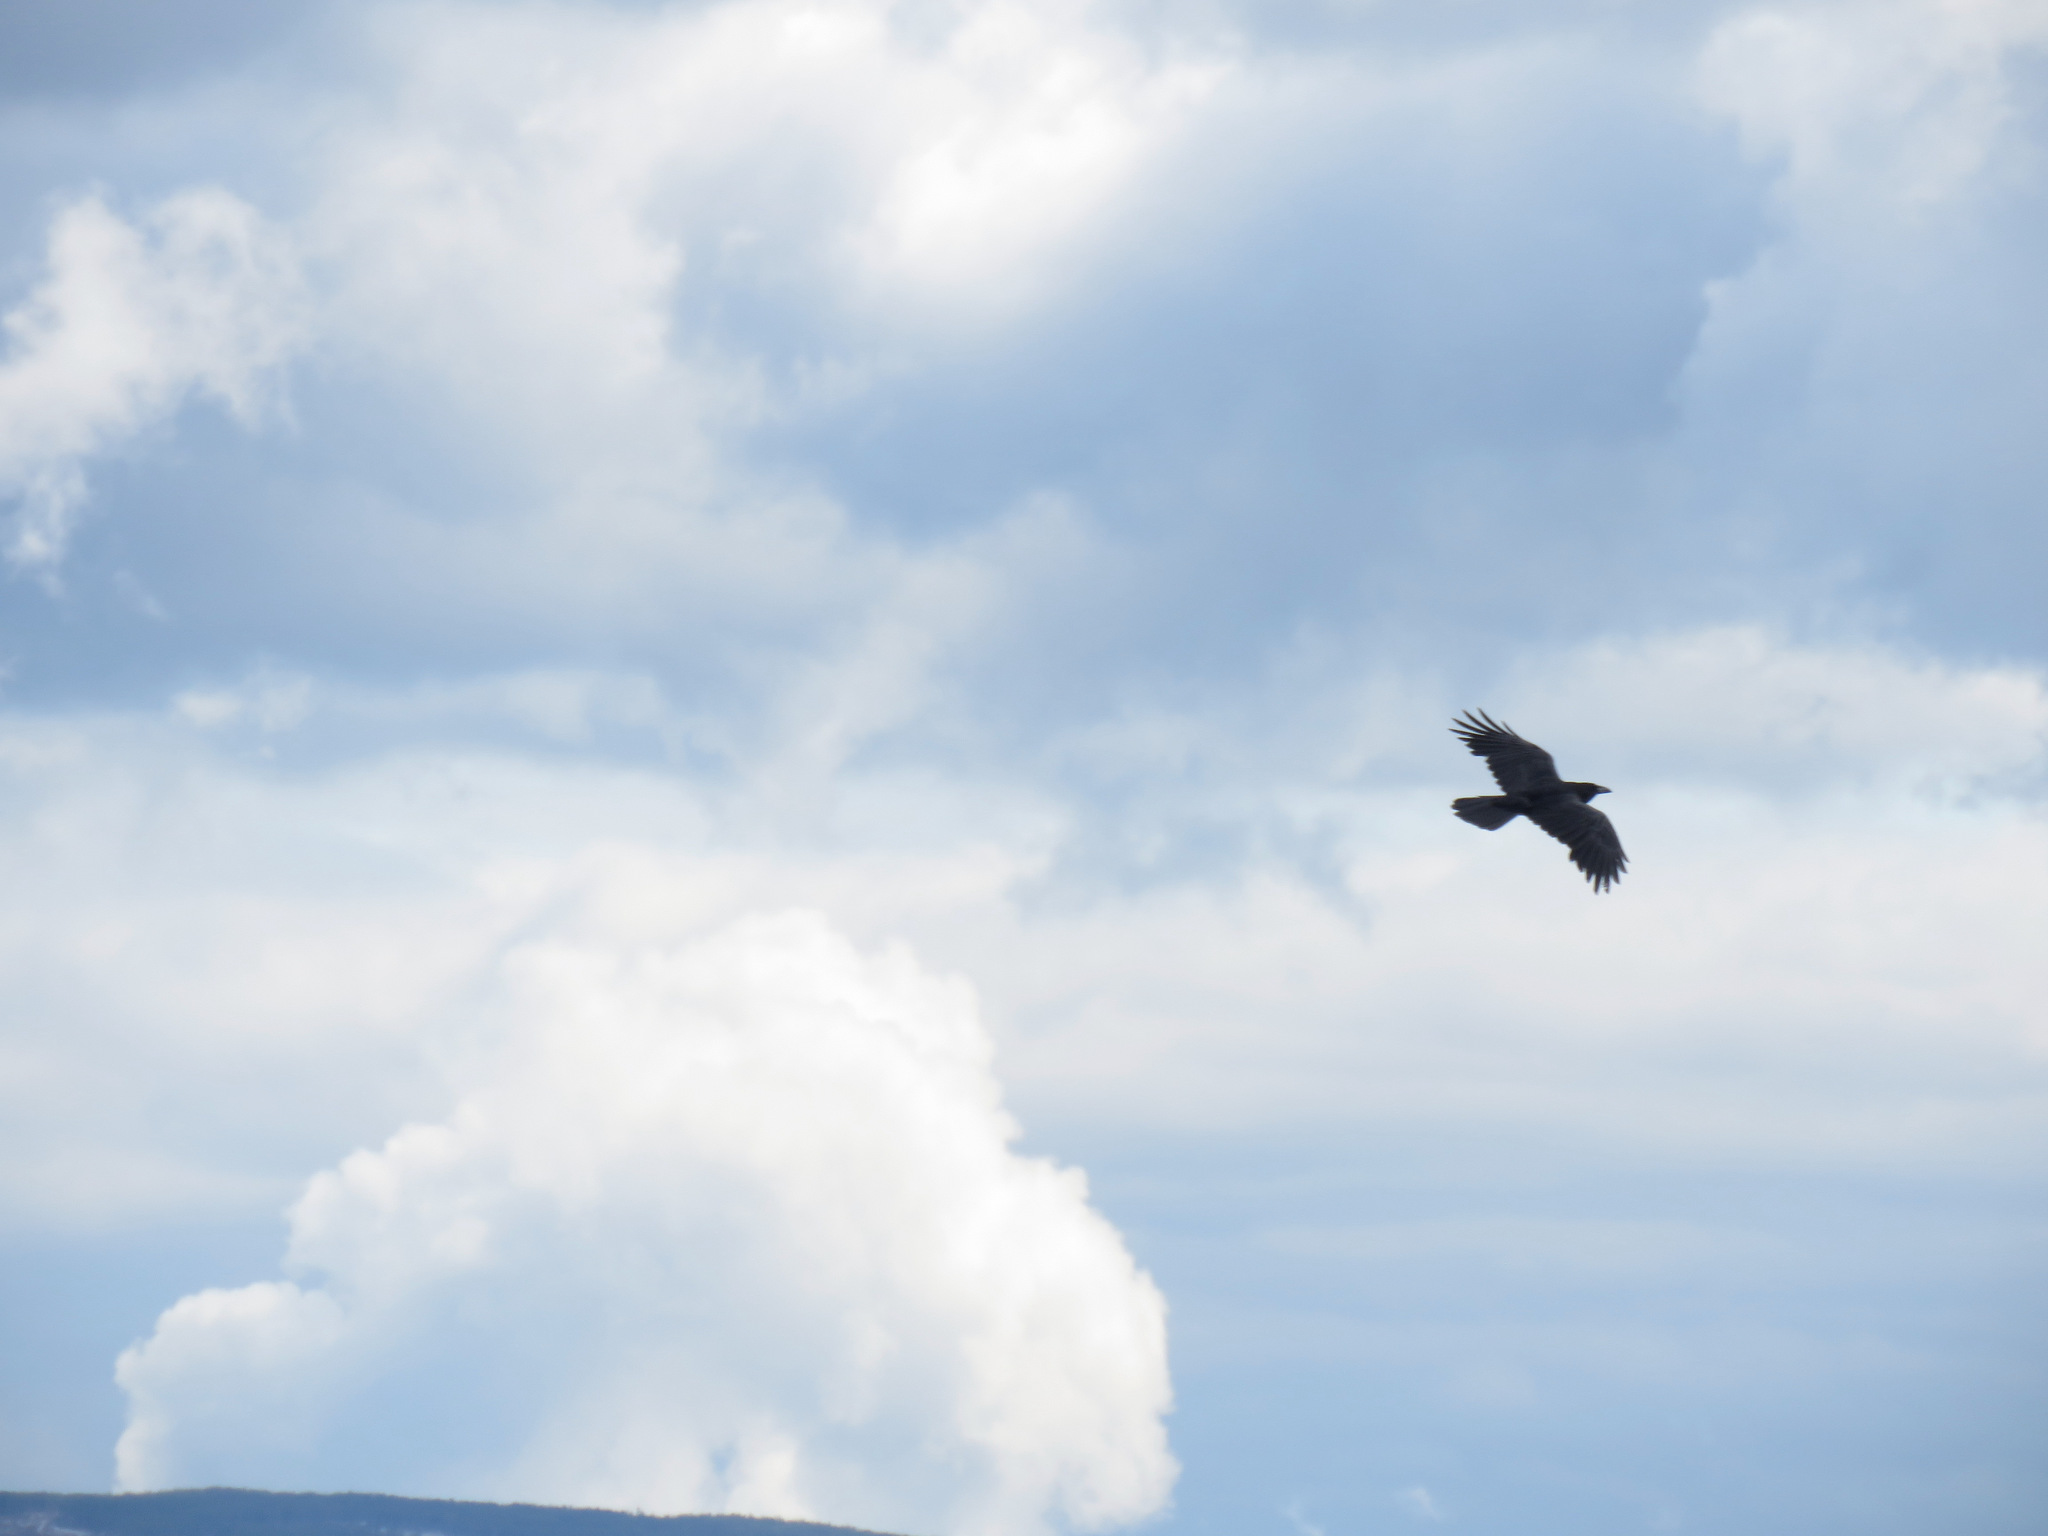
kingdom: Animalia
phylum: Chordata
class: Aves
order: Passeriformes
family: Corvidae
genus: Corvus
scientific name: Corvus corax
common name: Common raven
